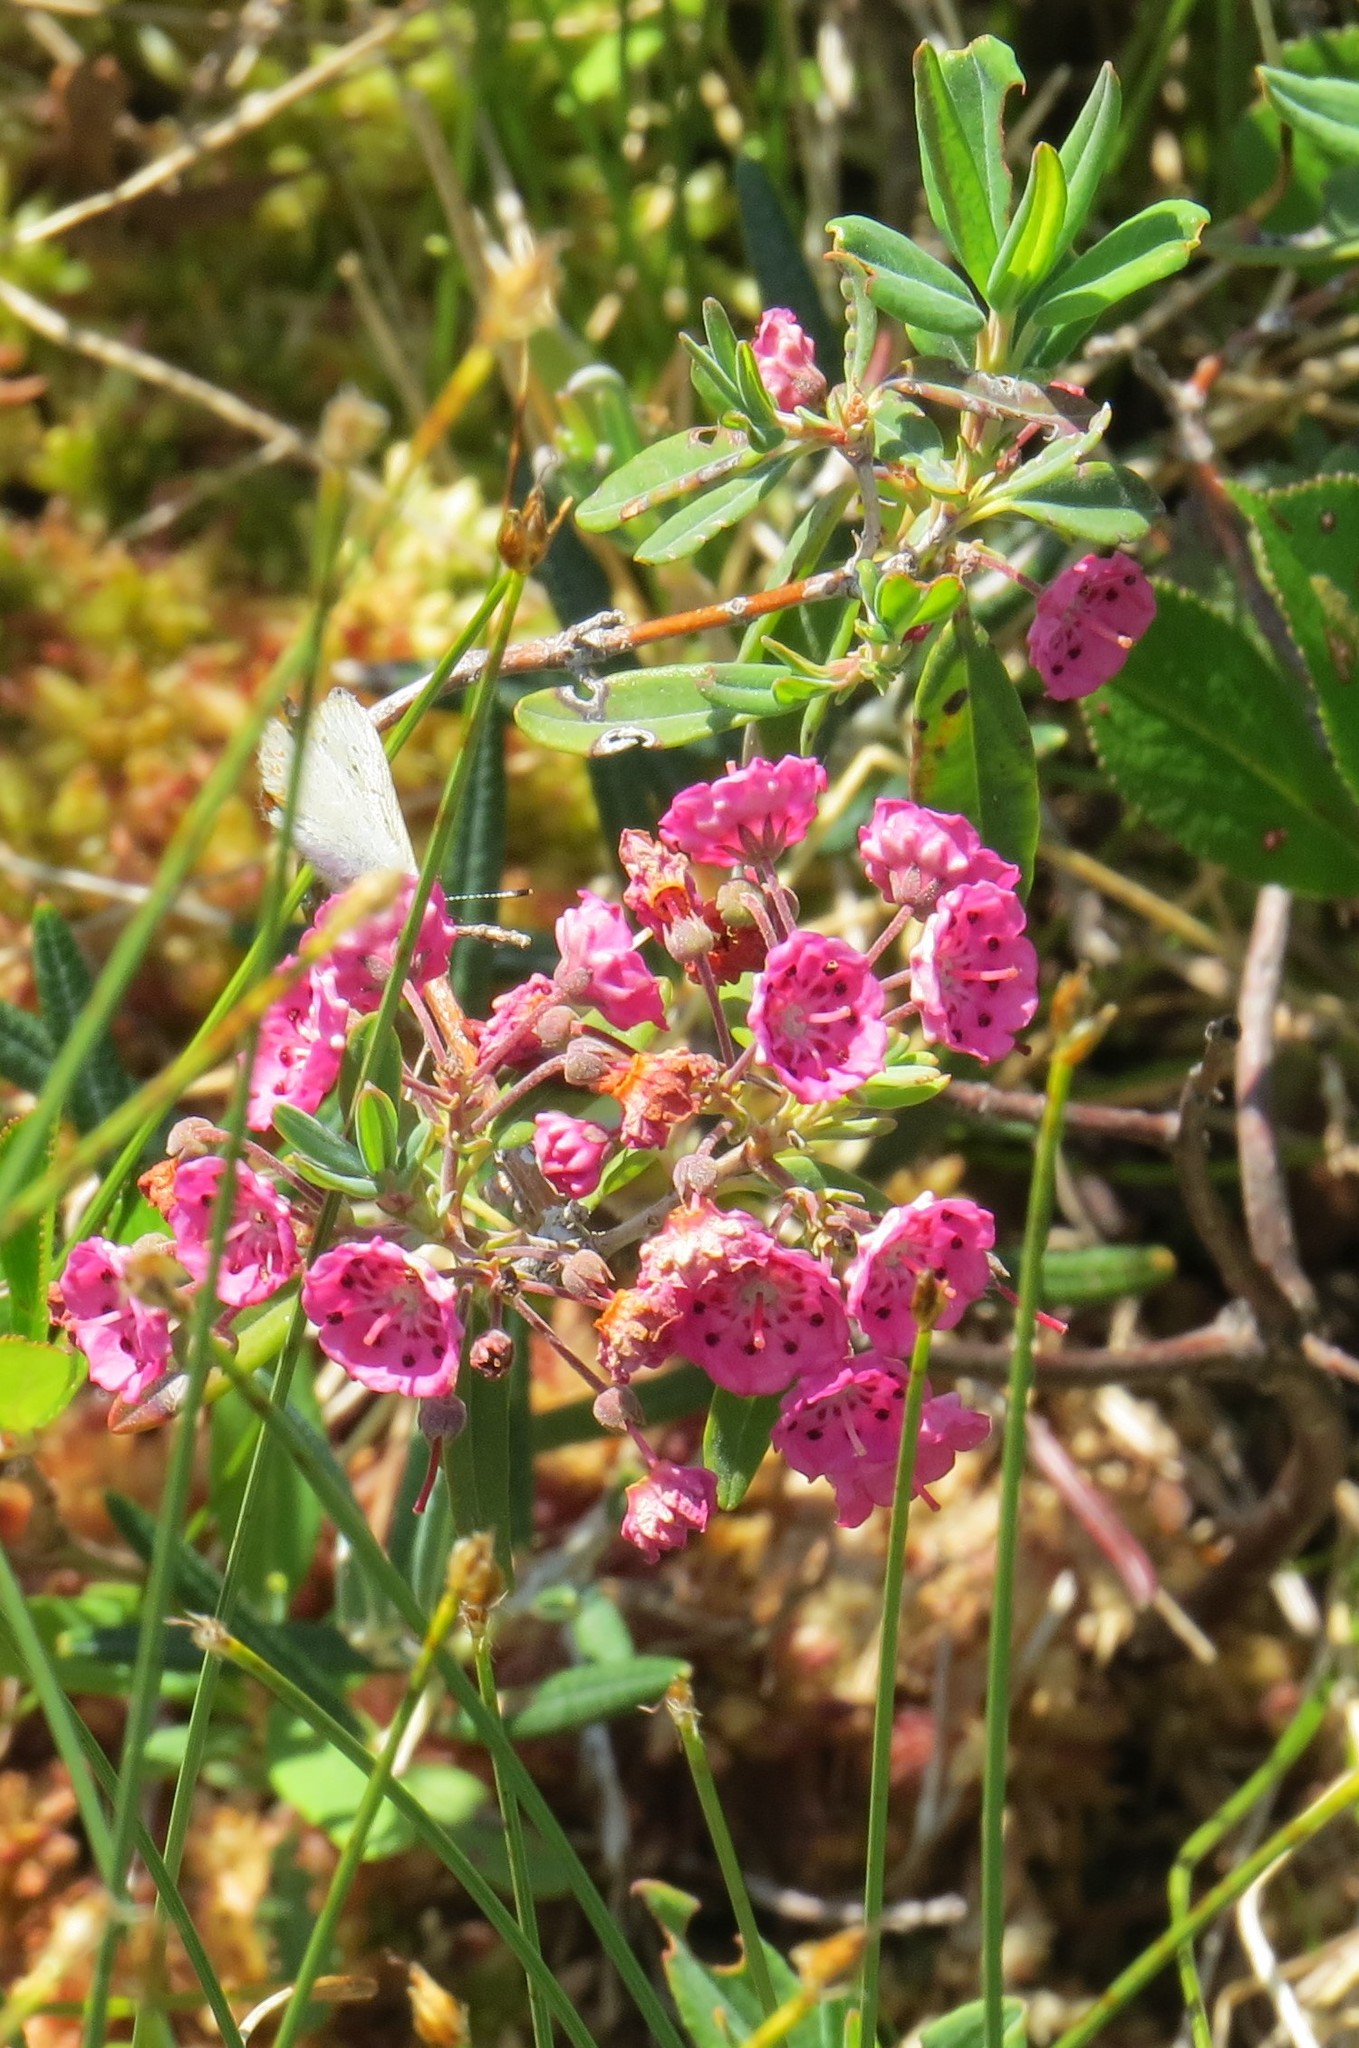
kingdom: Plantae
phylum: Tracheophyta
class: Magnoliopsida
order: Ericales
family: Ericaceae
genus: Kalmia
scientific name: Kalmia angustifolia
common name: Sheep-laurel
